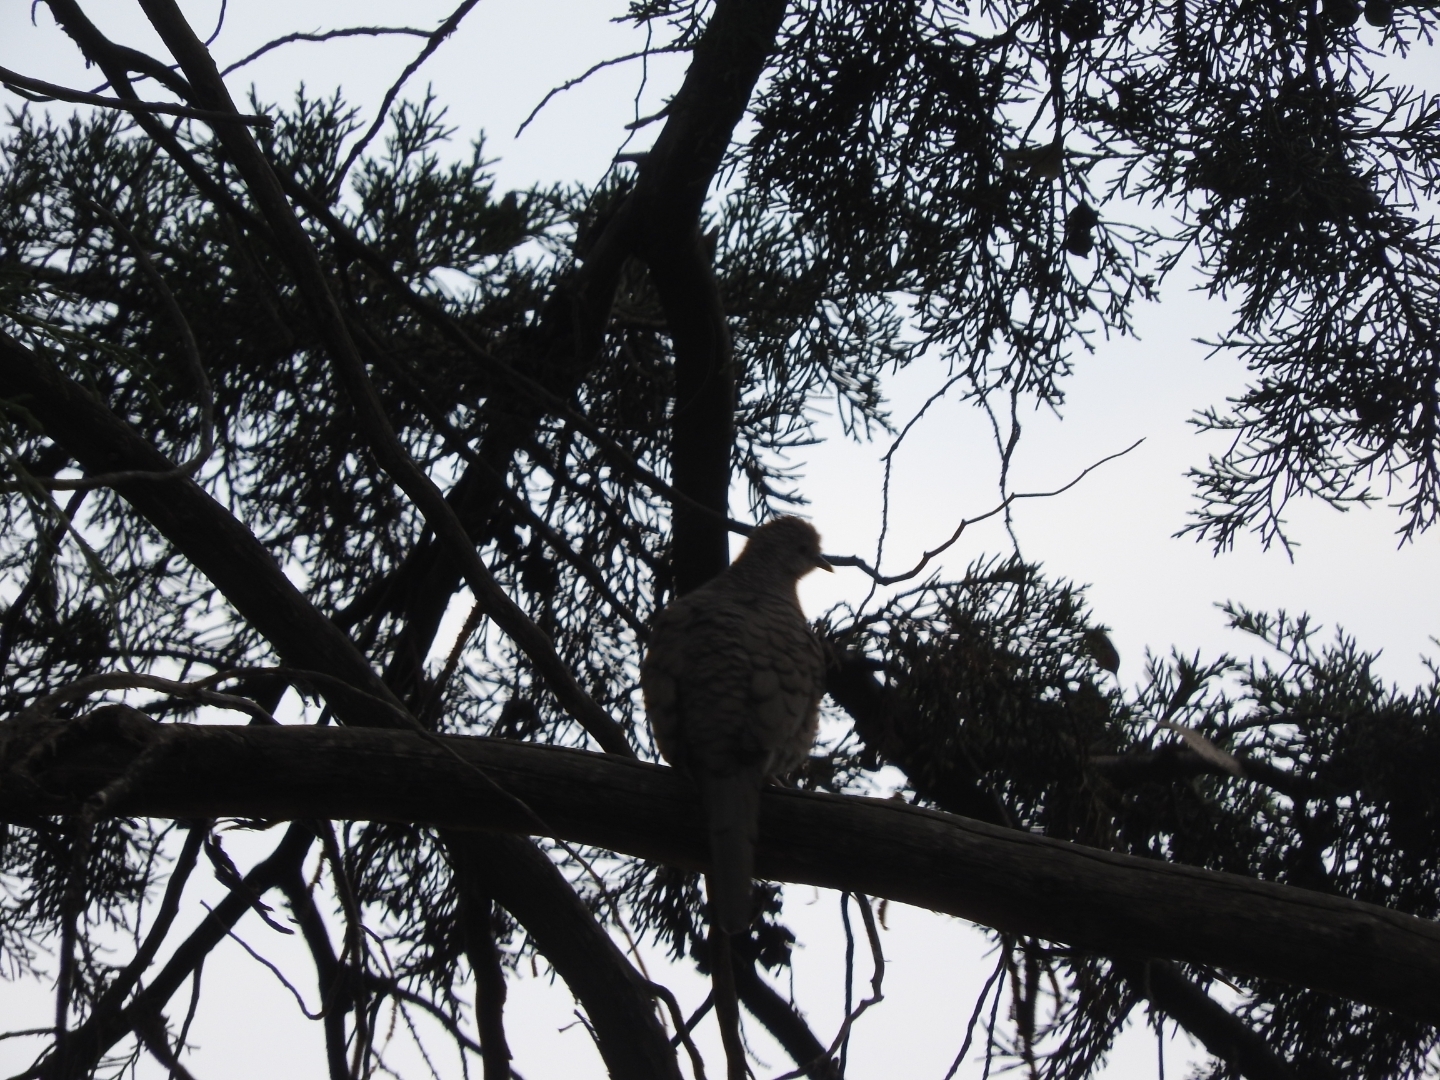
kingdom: Animalia
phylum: Chordata
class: Aves
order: Columbiformes
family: Columbidae
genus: Columbina
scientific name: Columbina inca
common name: Inca dove
